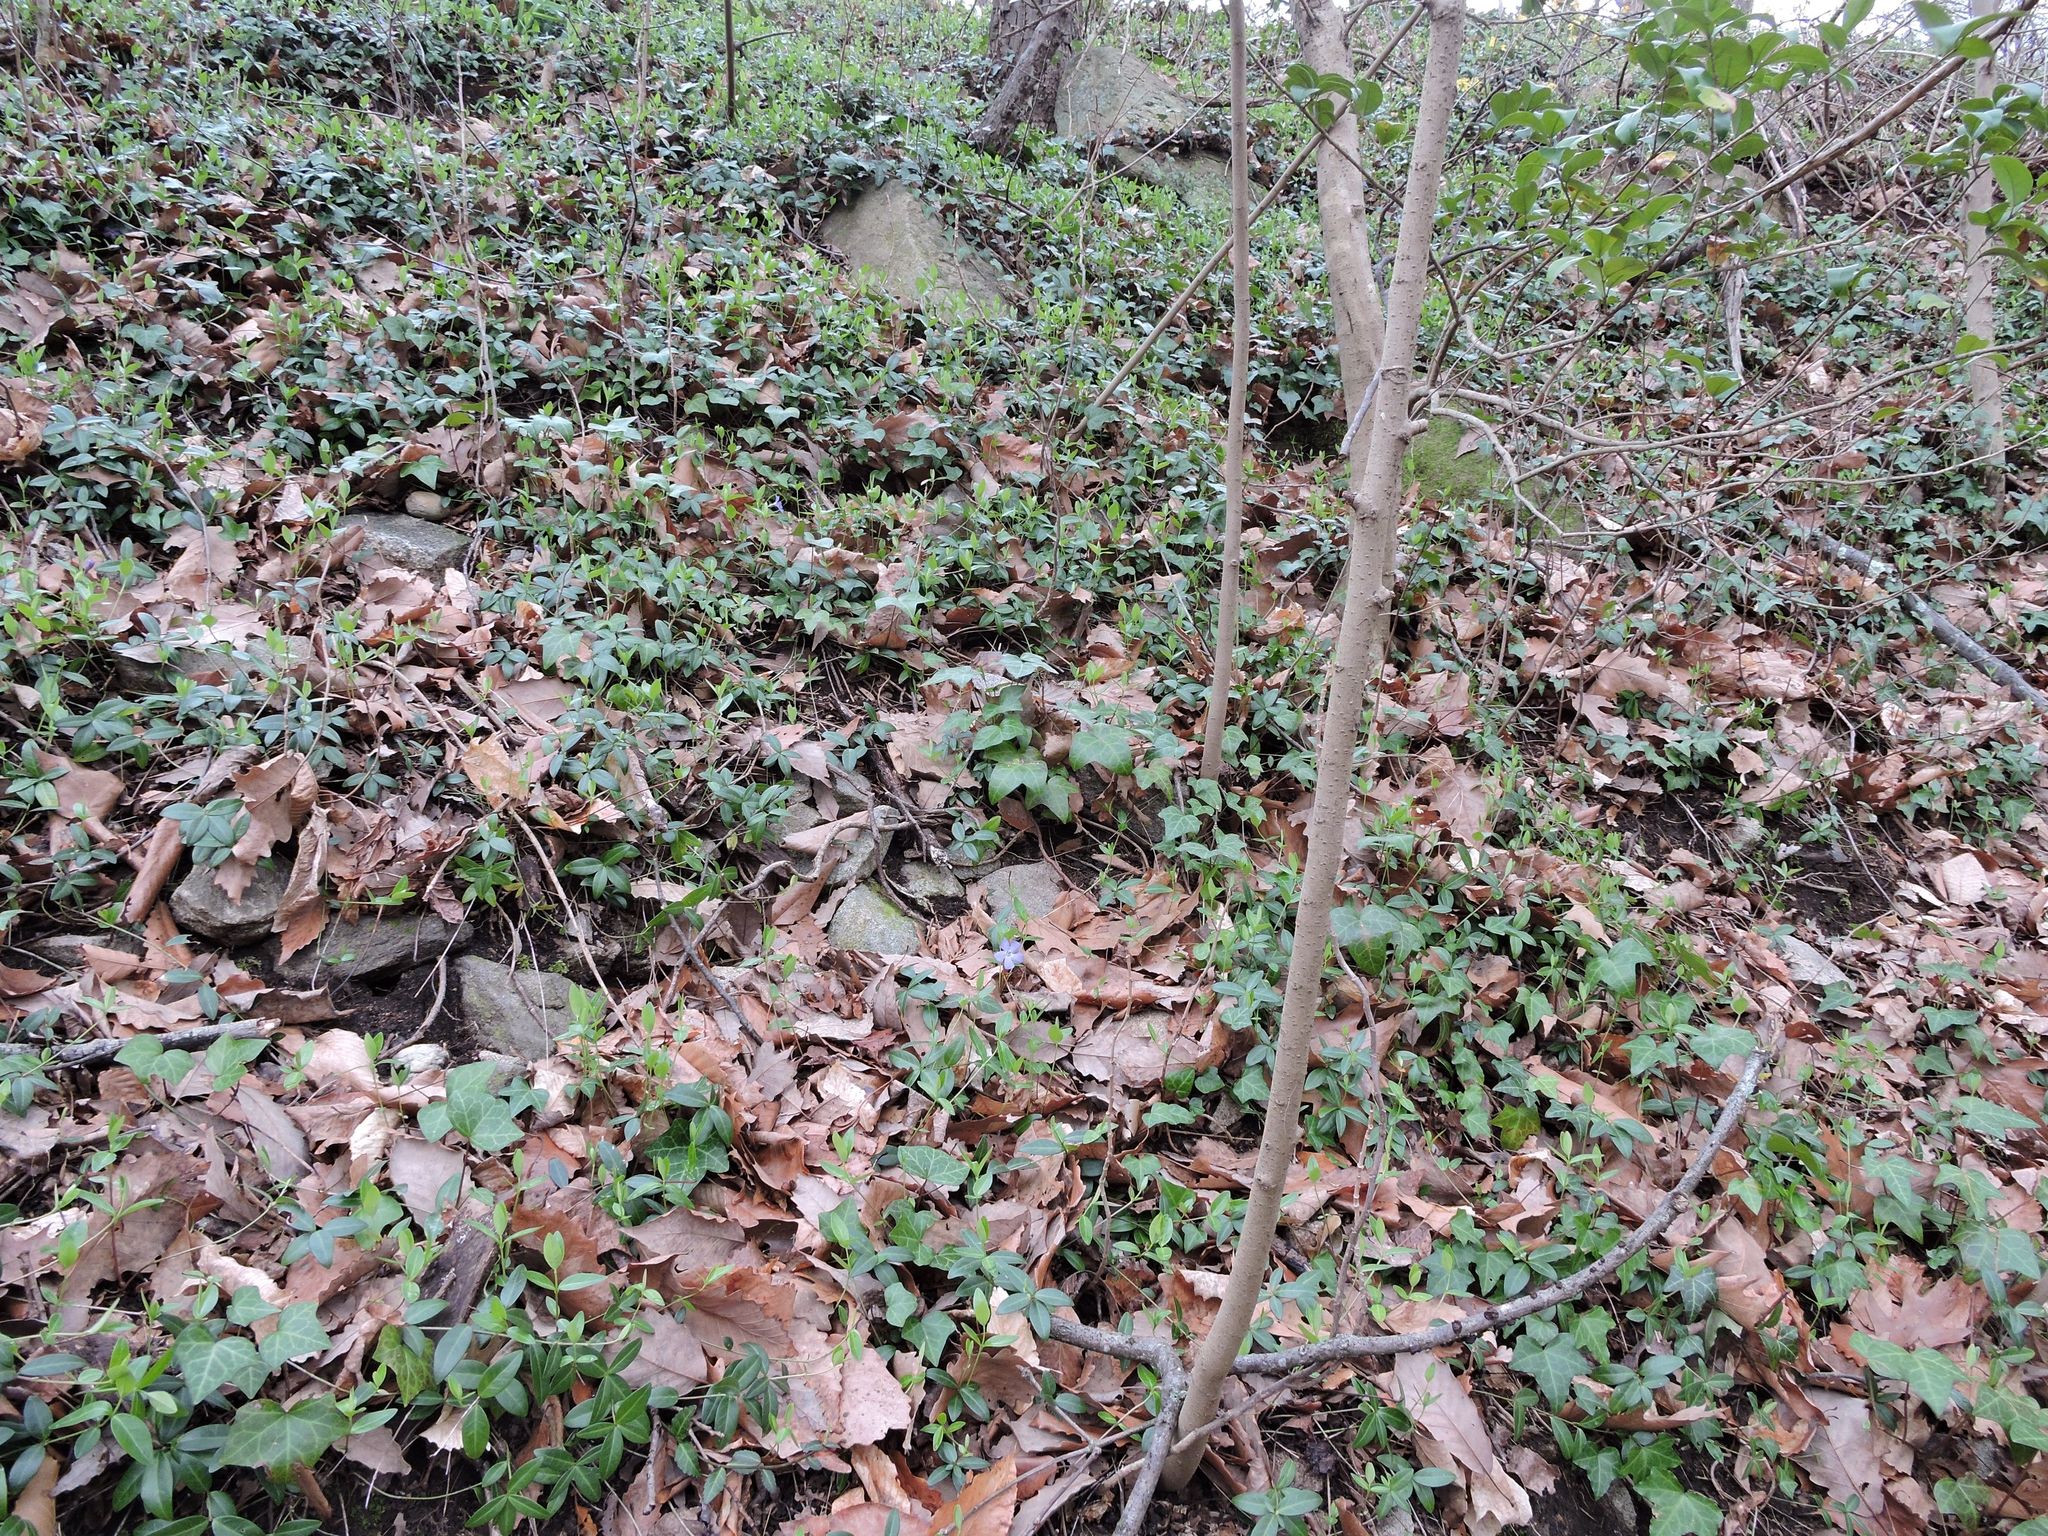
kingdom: Plantae
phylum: Tracheophyta
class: Magnoliopsida
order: Gentianales
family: Apocynaceae
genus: Vinca
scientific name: Vinca minor
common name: Lesser periwinkle
